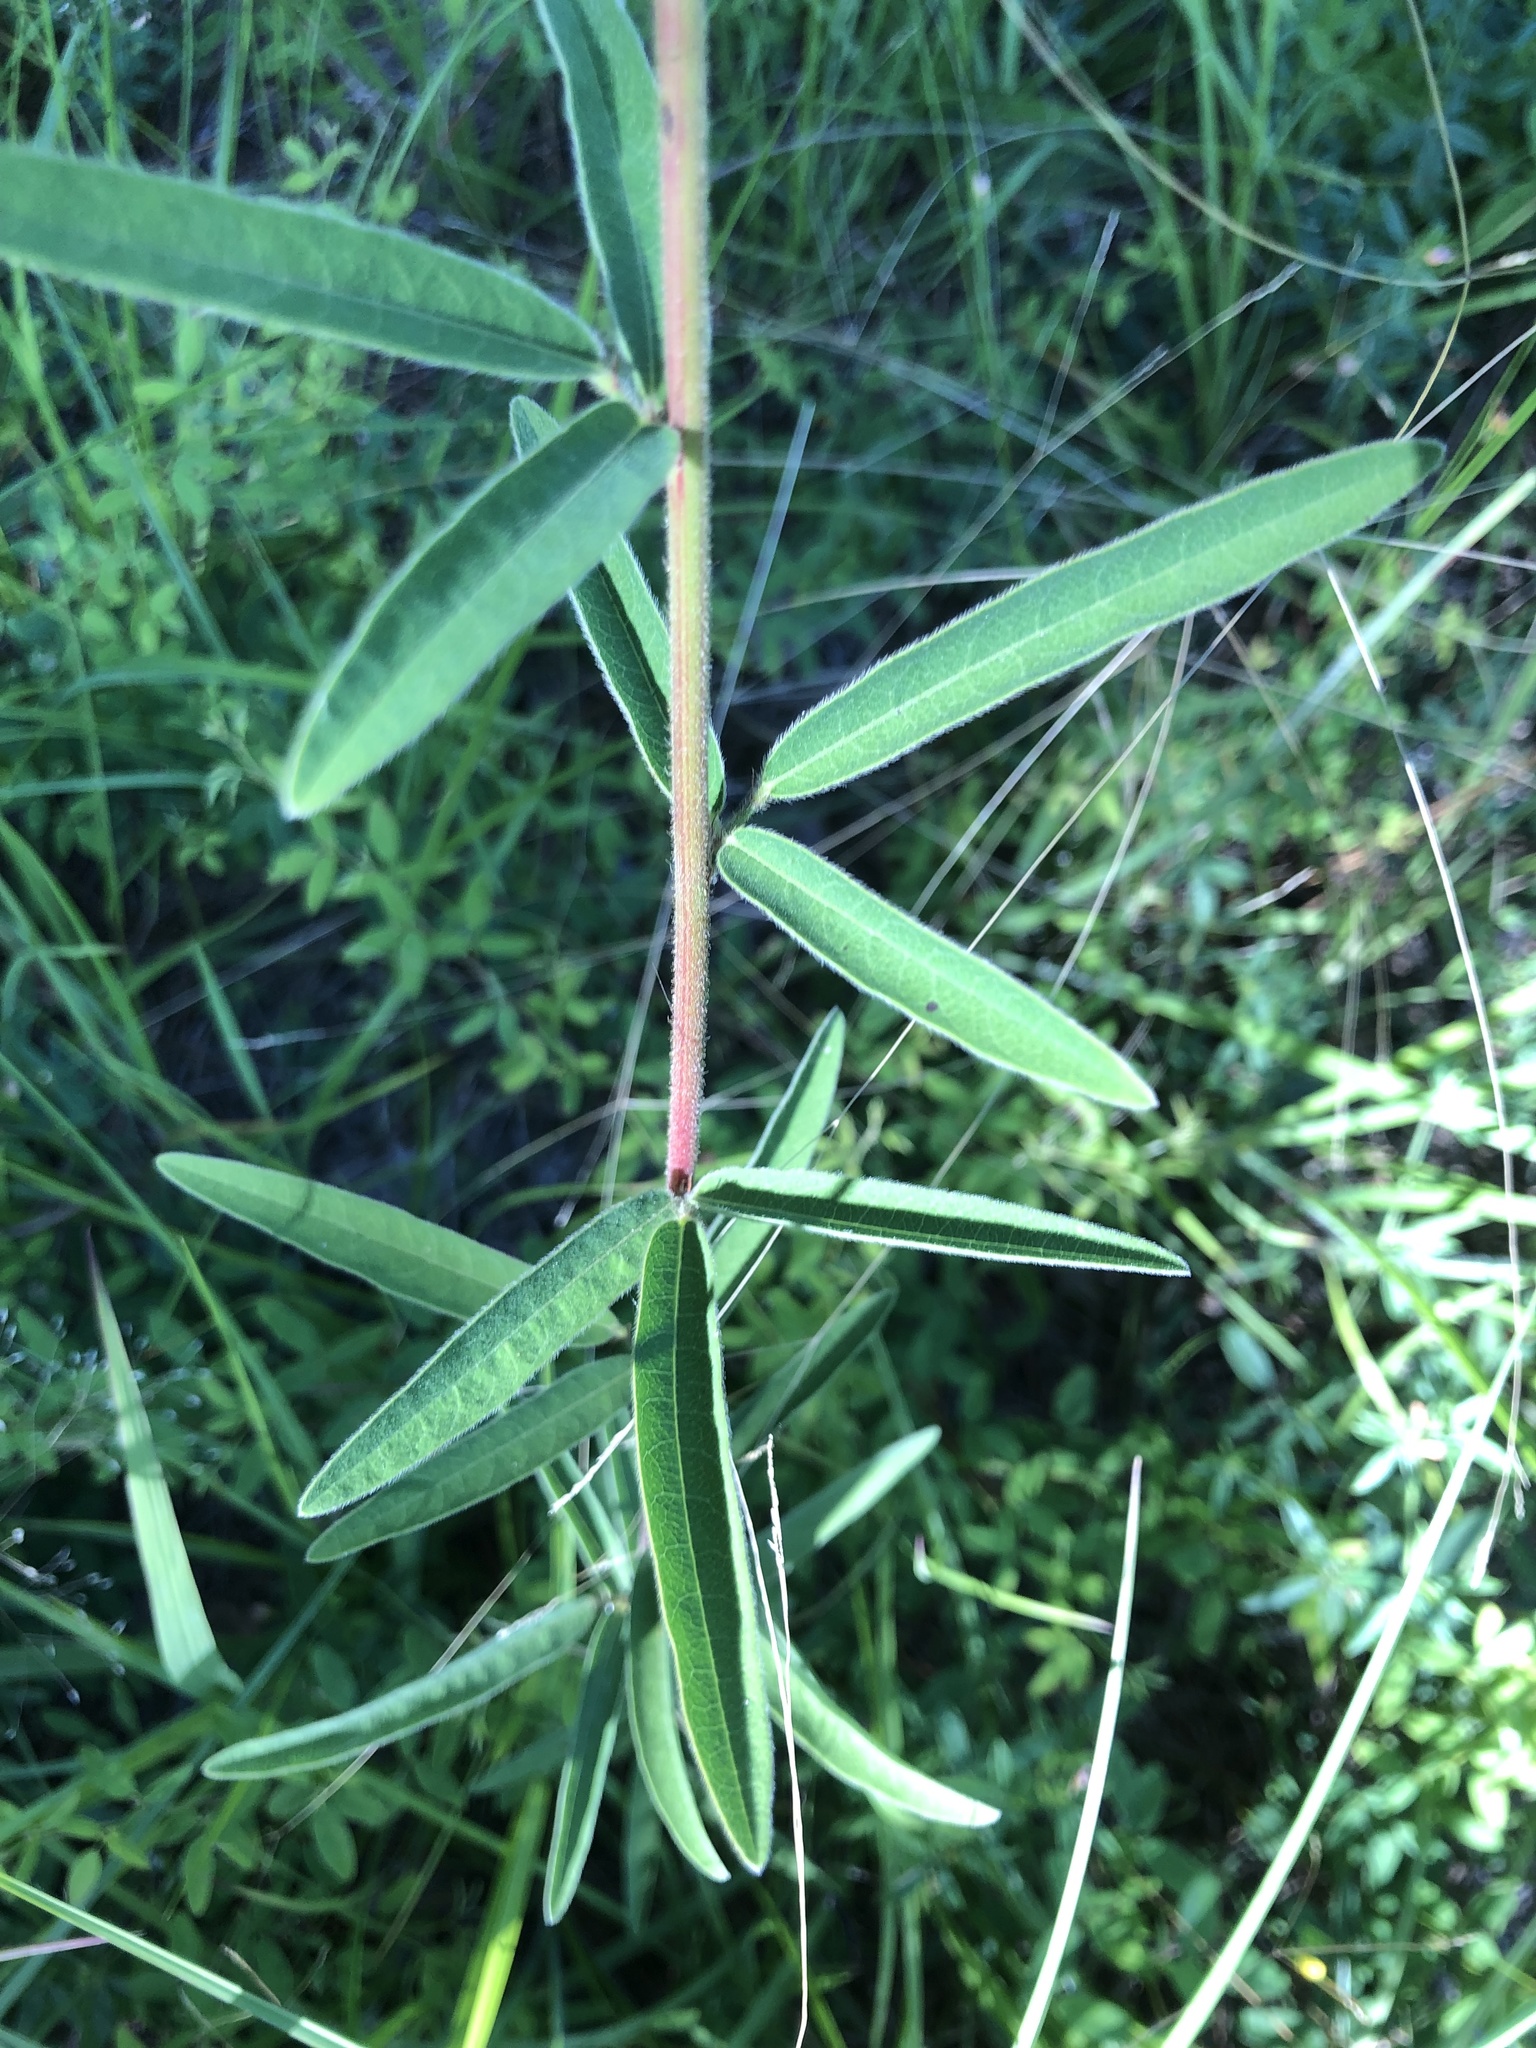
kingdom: Plantae
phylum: Tracheophyta
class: Magnoliopsida
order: Fabales
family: Fabaceae
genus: Desmodium
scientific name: Desmodium sessilifolium
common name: Sessile tick-clover
